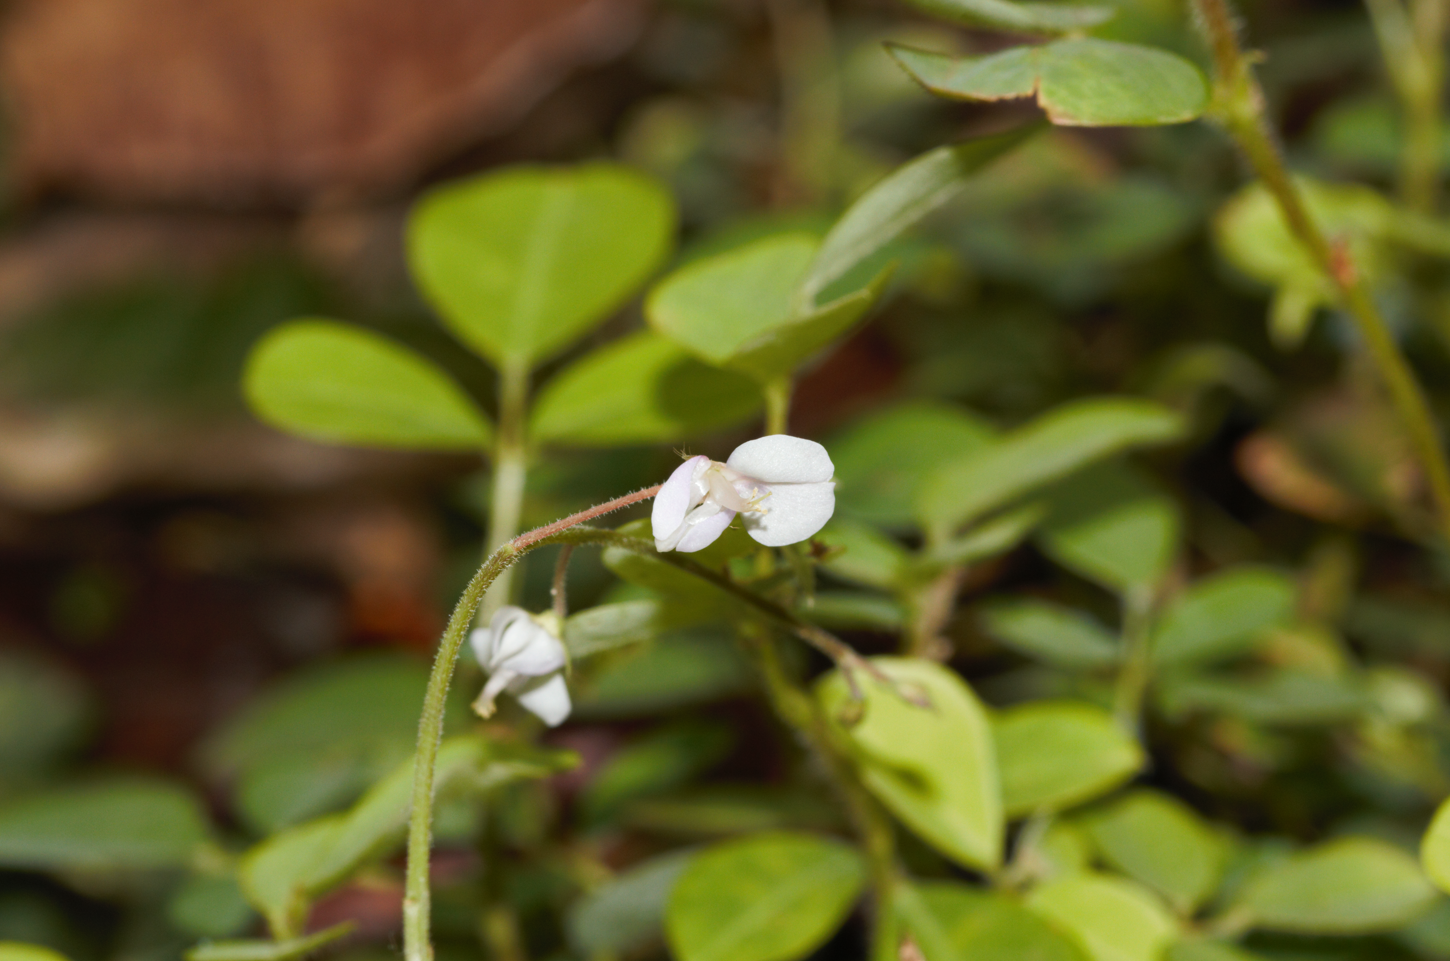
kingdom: Plantae
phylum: Tracheophyta
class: Magnoliopsida
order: Fabales
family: Fabaceae
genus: Grona
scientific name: Grona adscendens
